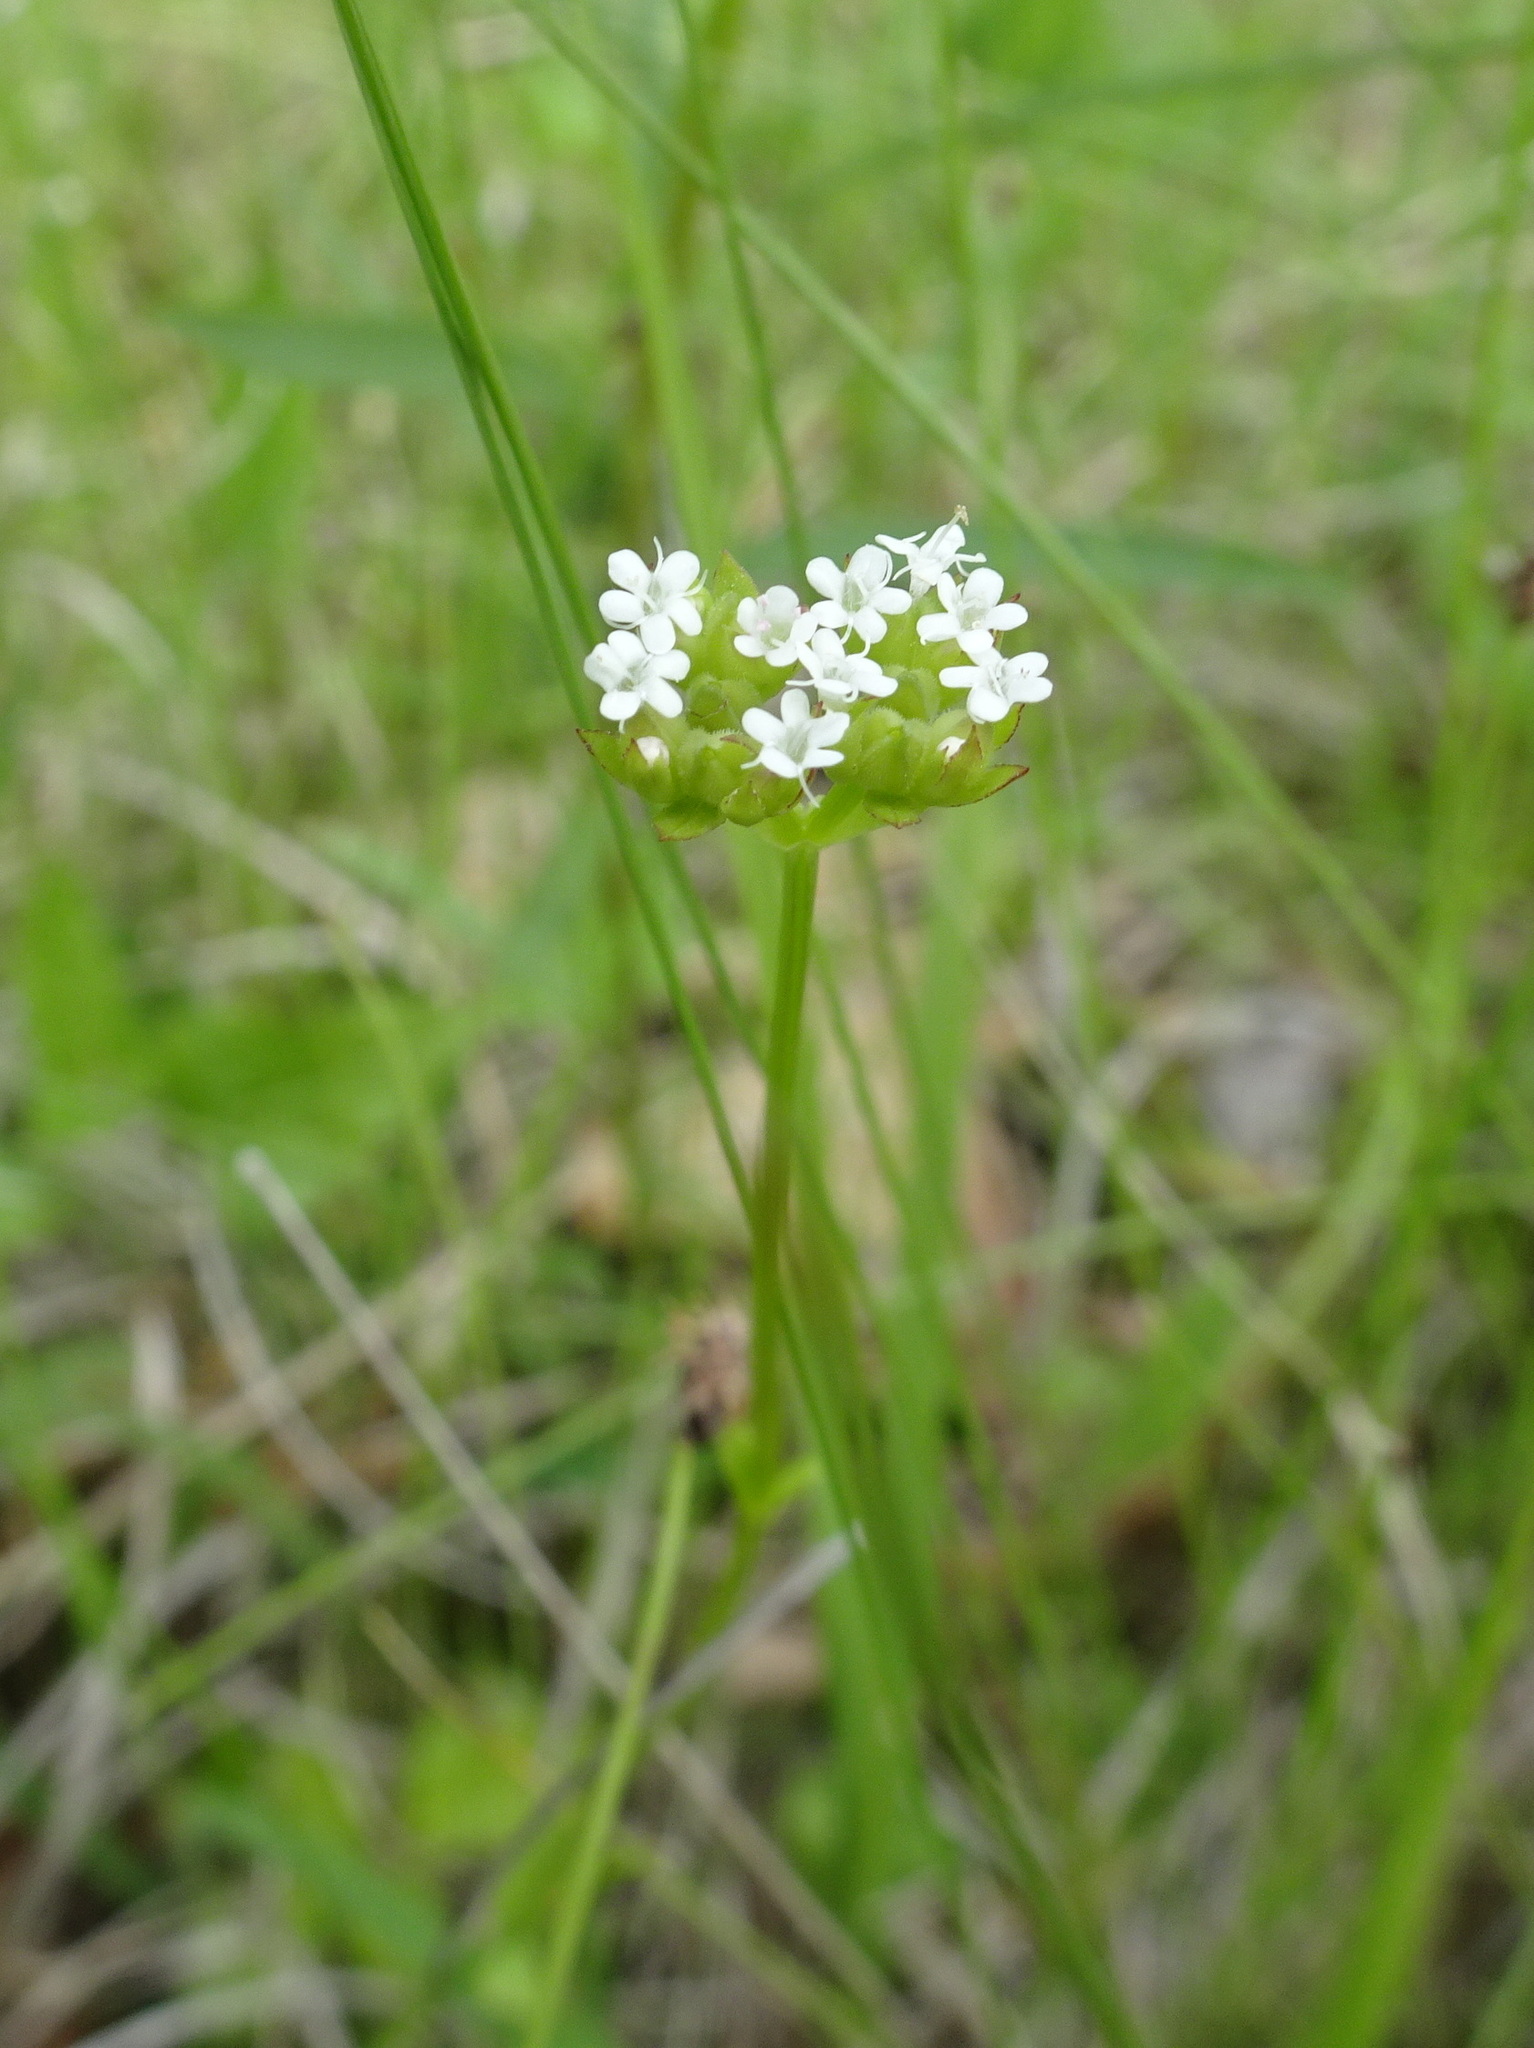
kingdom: Plantae
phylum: Tracheophyta
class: Magnoliopsida
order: Dipsacales
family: Caprifoliaceae
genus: Valerianella
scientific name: Valerianella radiata
